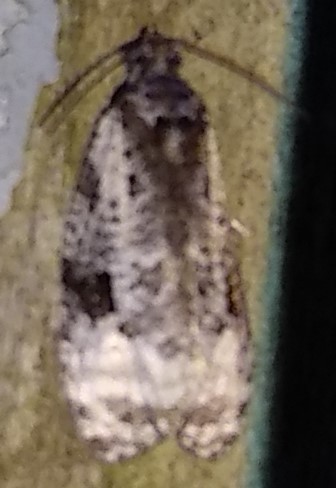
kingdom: Animalia
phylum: Arthropoda
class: Insecta
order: Lepidoptera
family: Tortricidae
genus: Apotomis
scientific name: Apotomis albeolana
